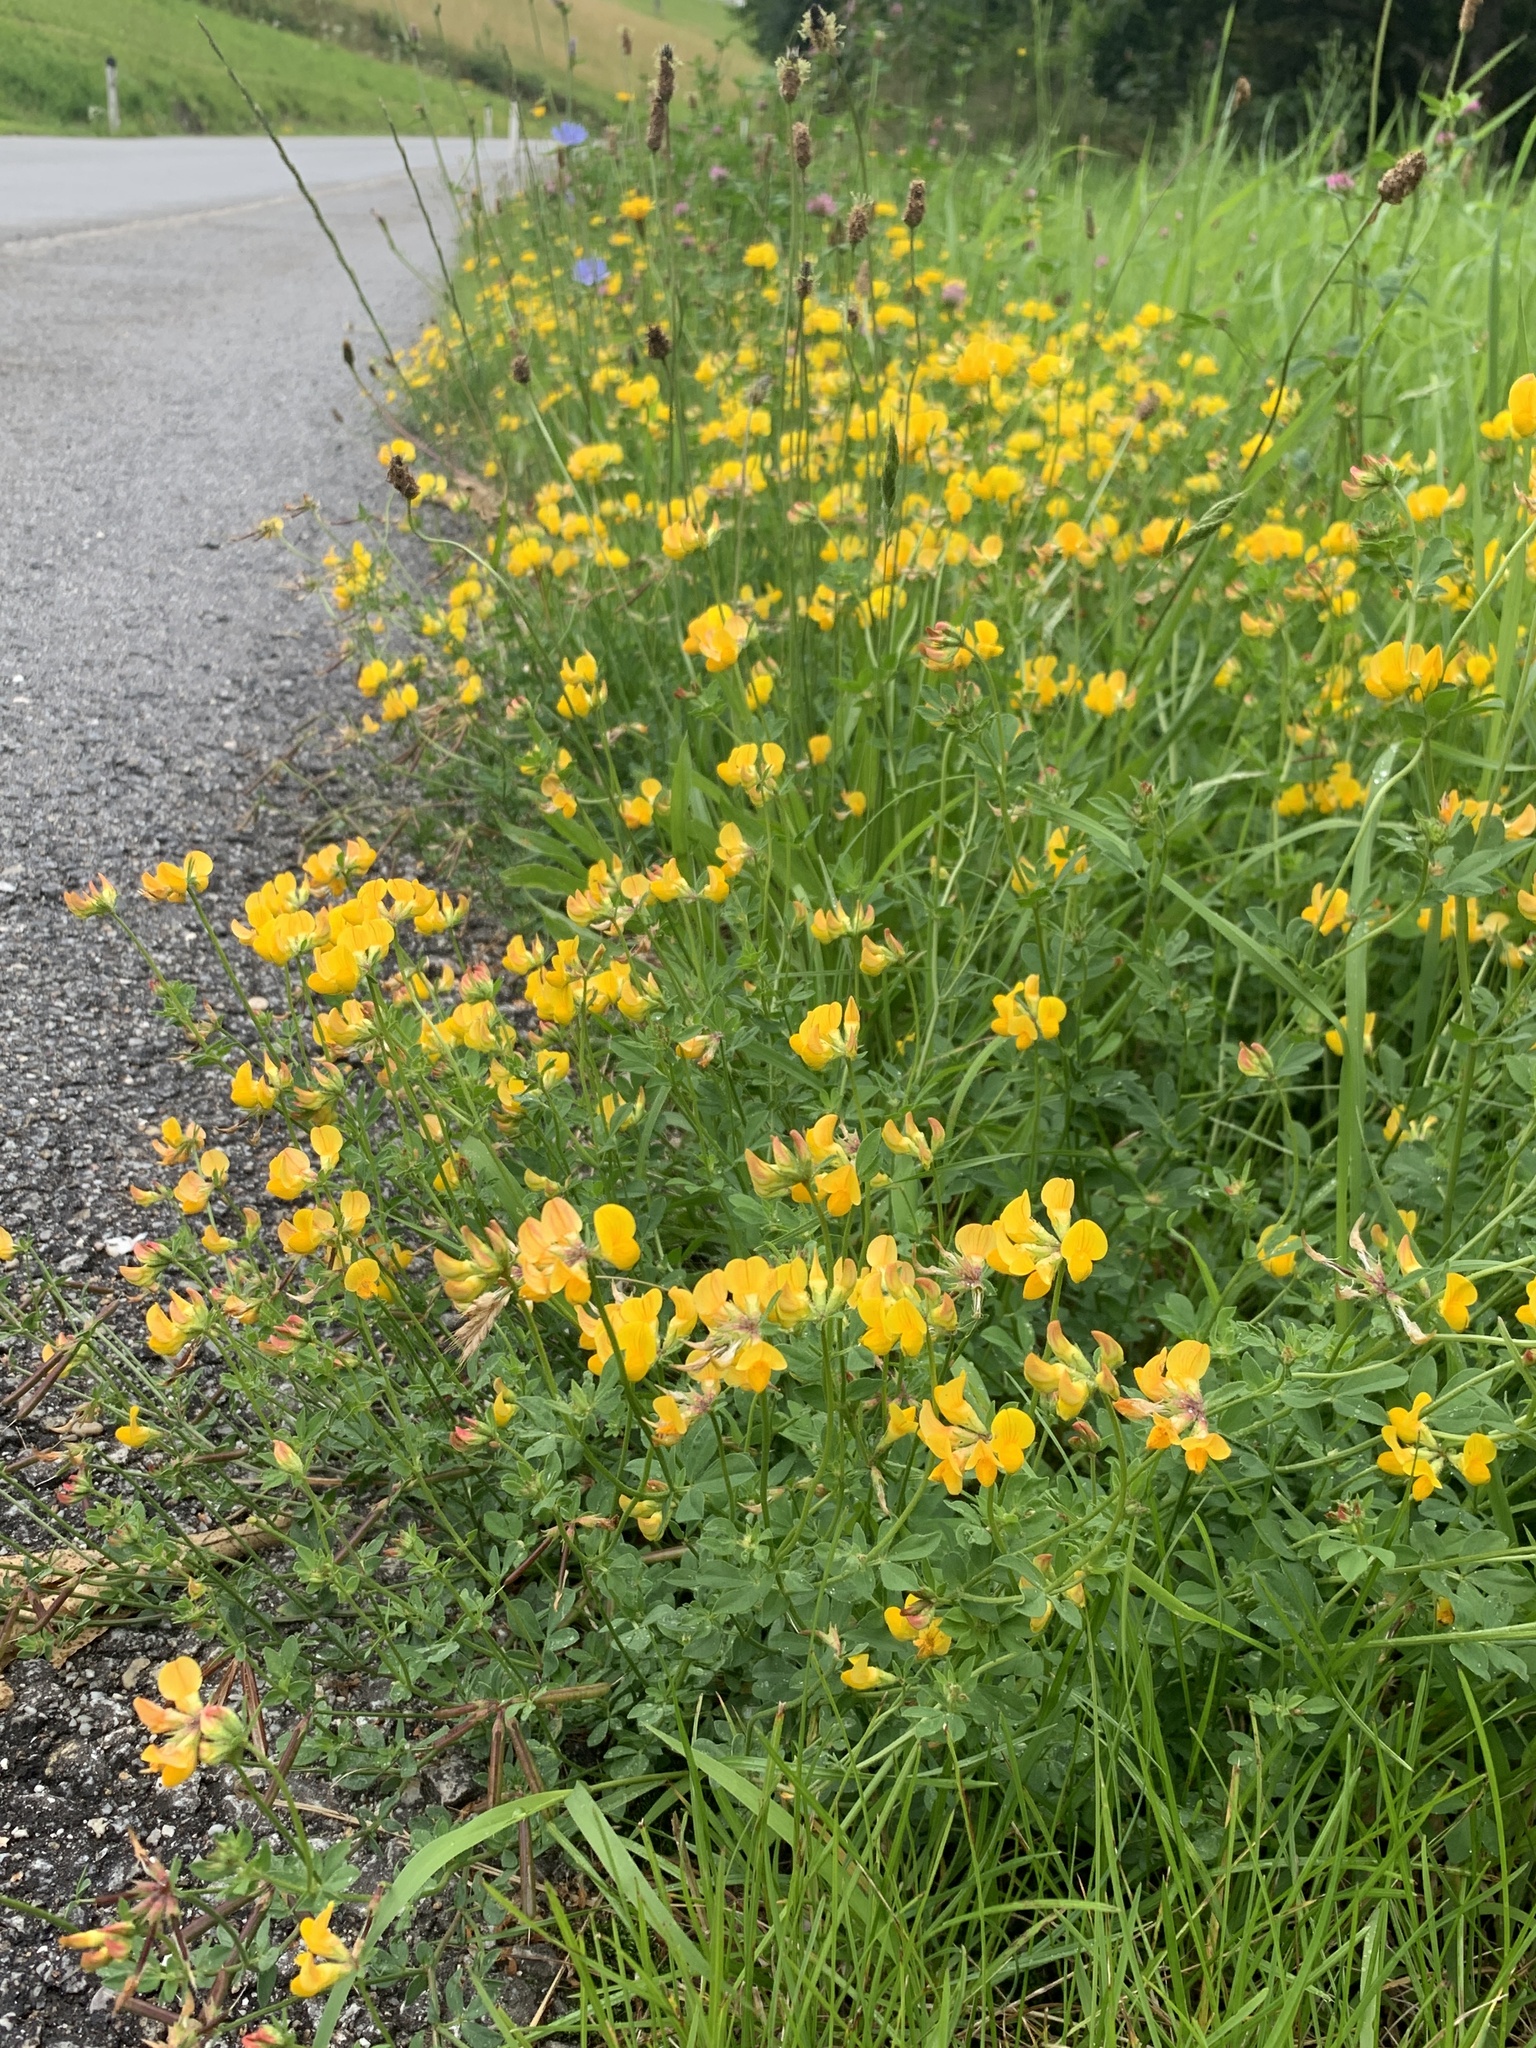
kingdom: Plantae
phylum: Tracheophyta
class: Magnoliopsida
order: Fabales
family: Fabaceae
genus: Lotus
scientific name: Lotus corniculatus
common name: Common bird's-foot-trefoil
